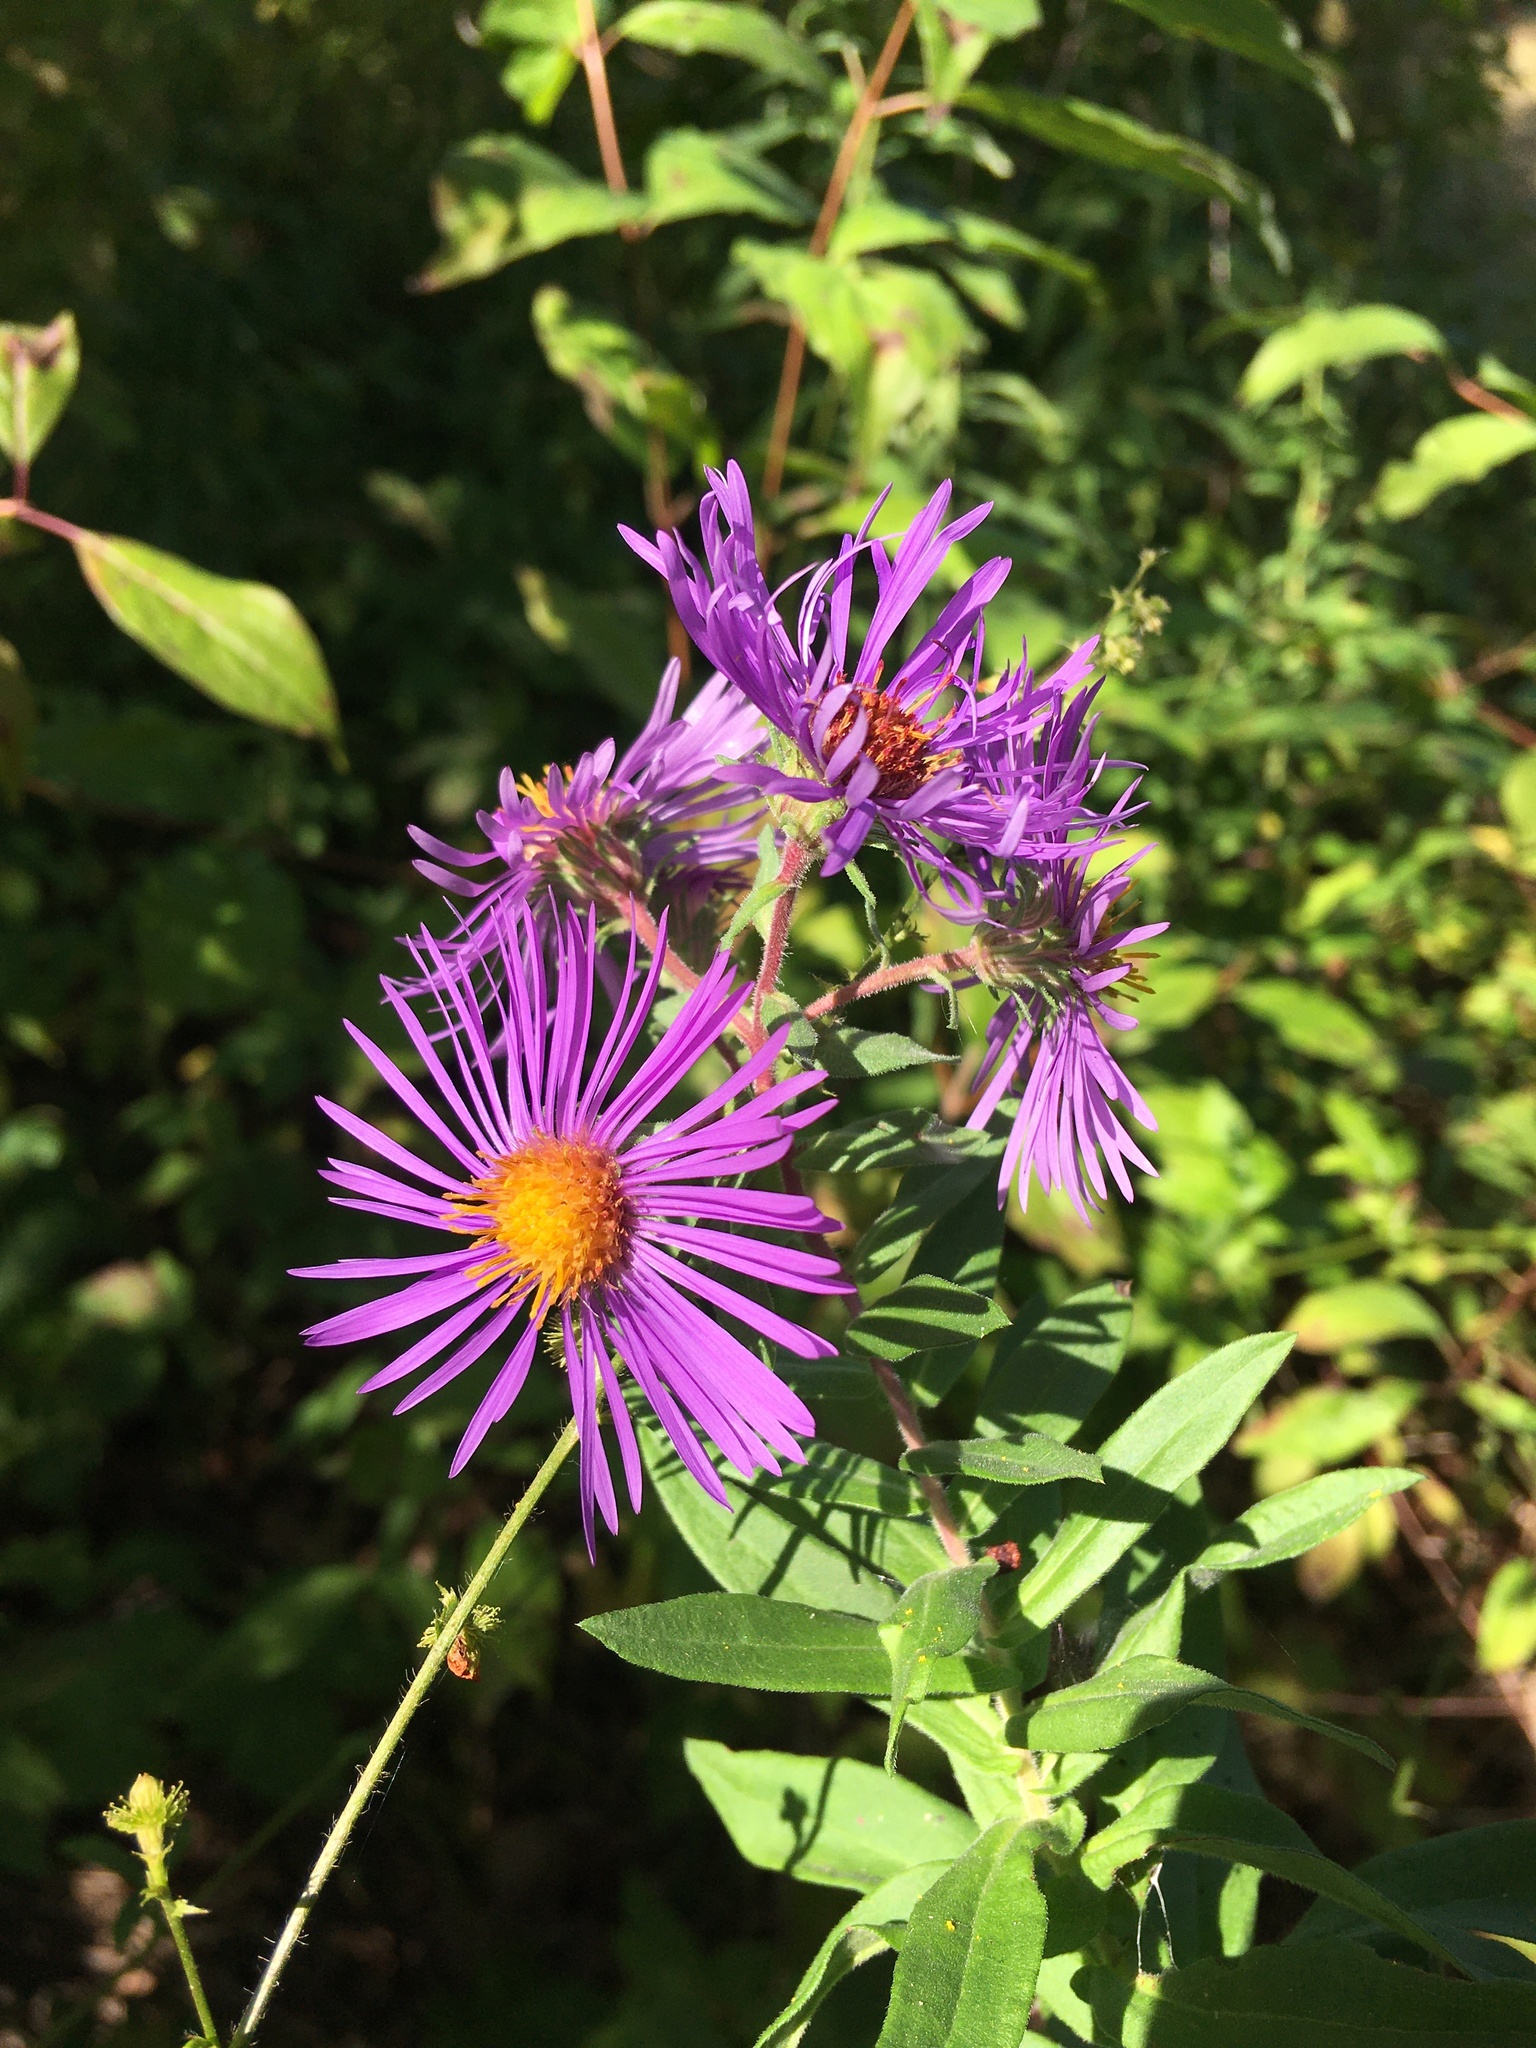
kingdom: Plantae
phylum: Tracheophyta
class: Magnoliopsida
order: Asterales
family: Asteraceae
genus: Symphyotrichum
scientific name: Symphyotrichum novae-angliae
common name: Michaelmas daisy
